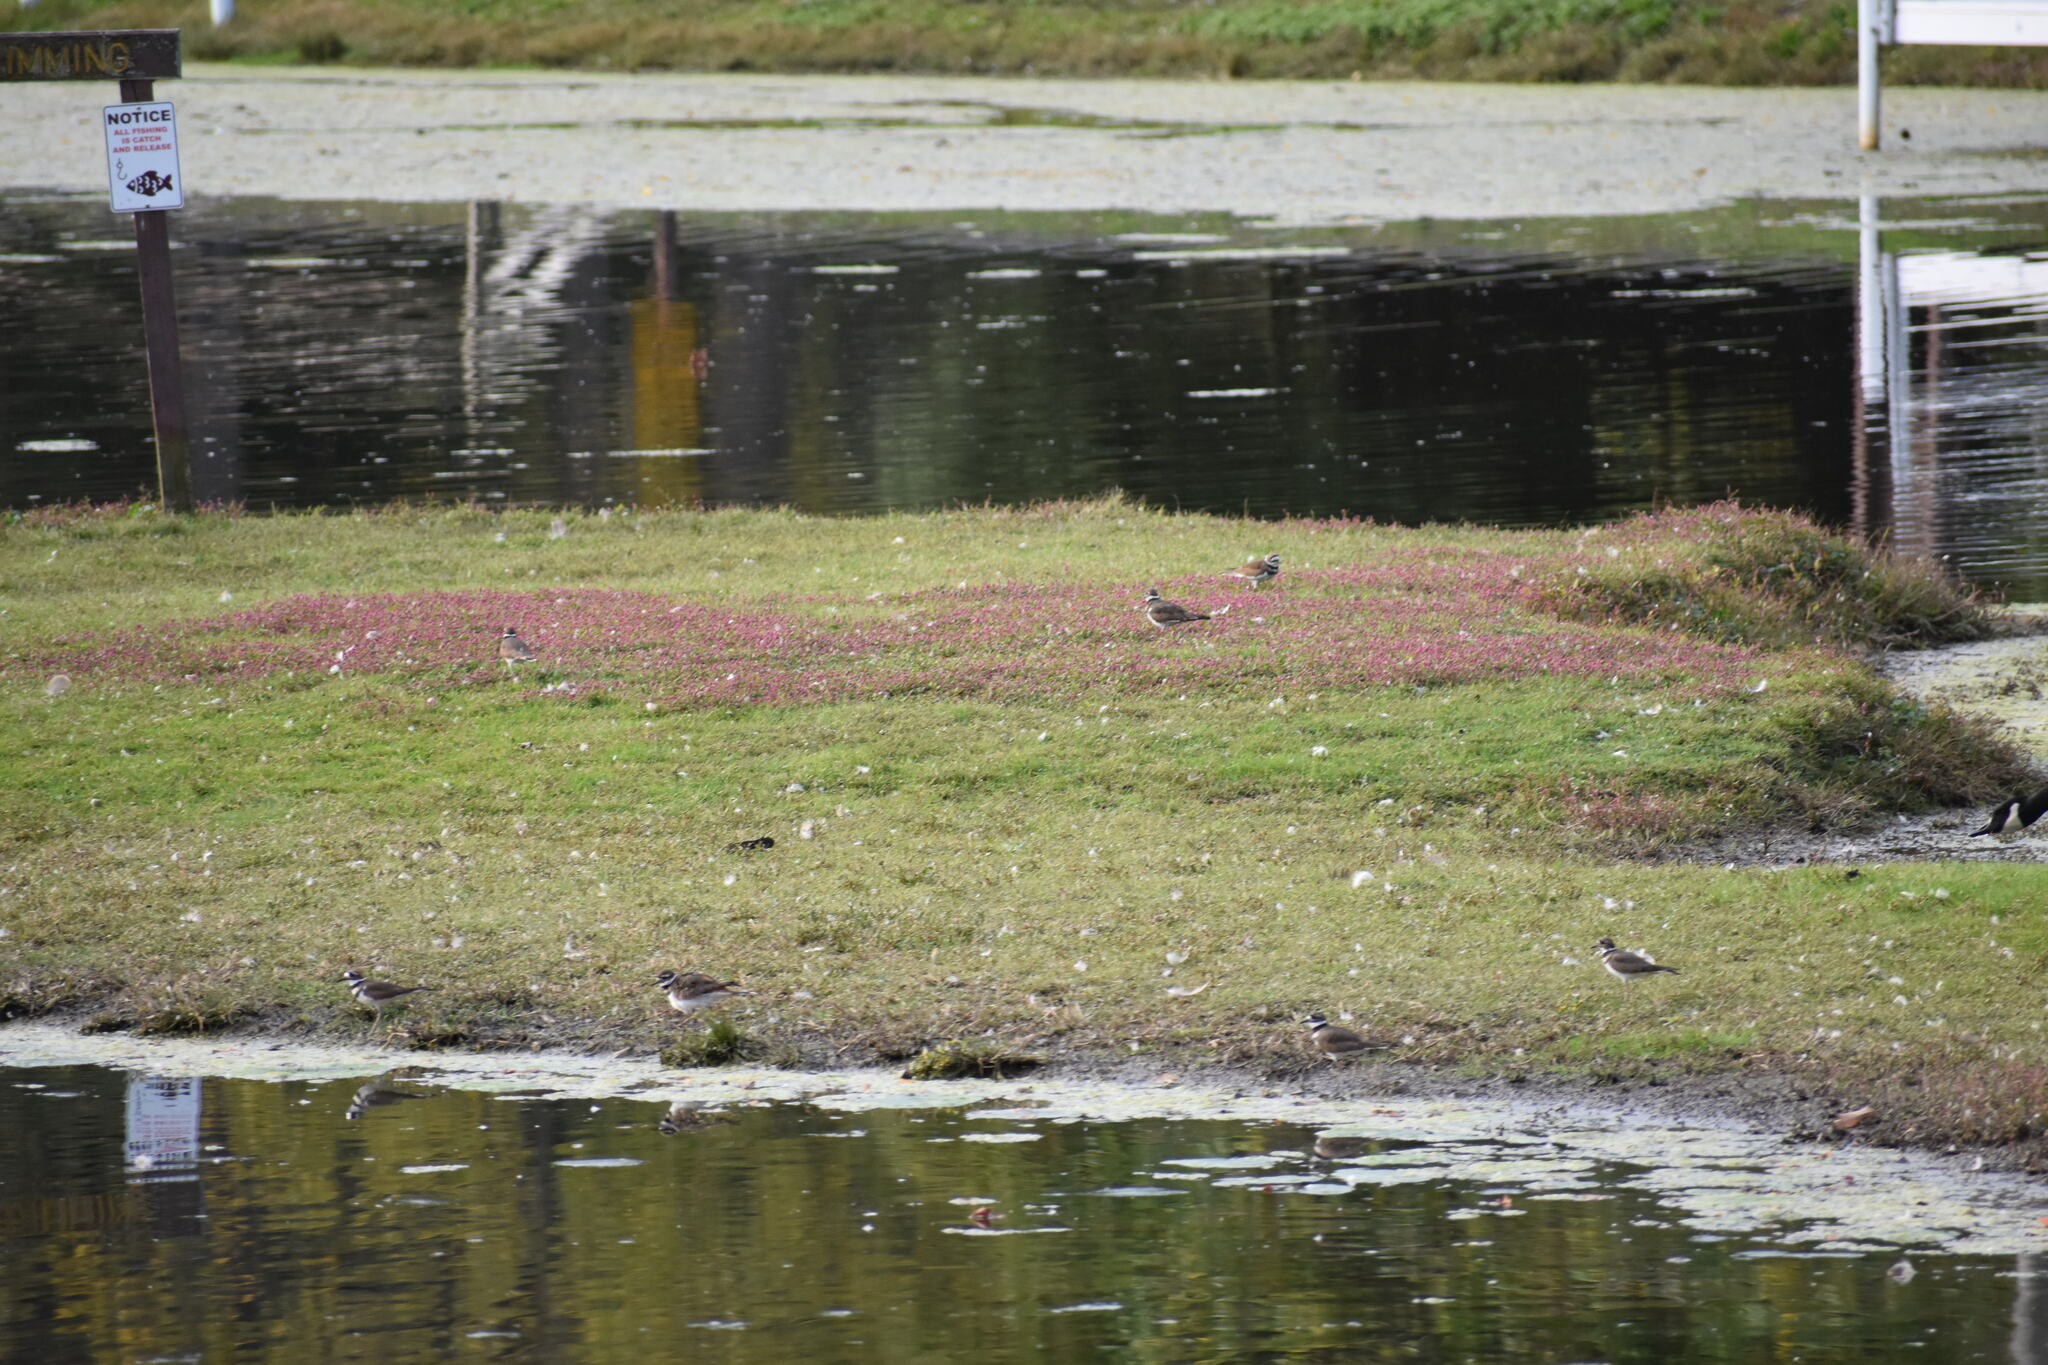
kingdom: Animalia
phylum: Chordata
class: Aves
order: Charadriiformes
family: Charadriidae
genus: Charadrius
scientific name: Charadrius vociferus
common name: Killdeer
